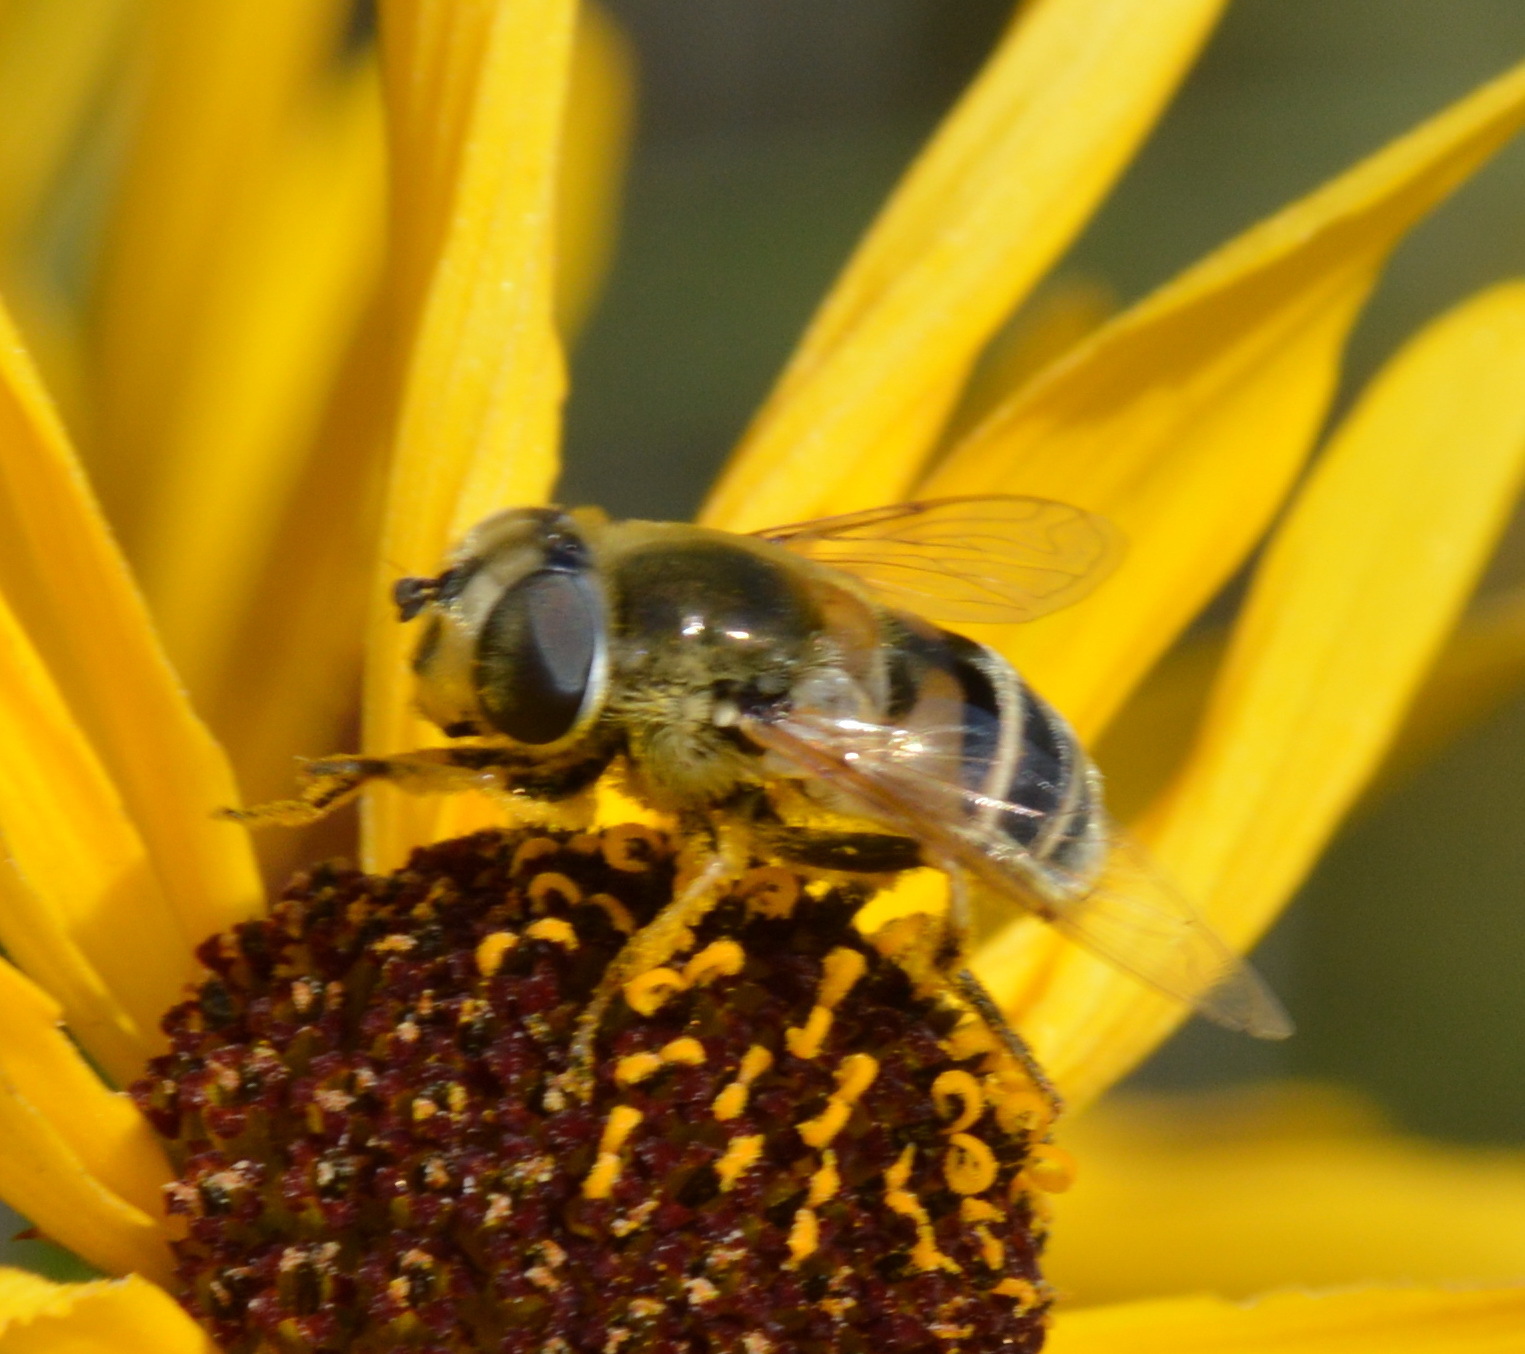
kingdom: Animalia
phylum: Arthropoda
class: Insecta
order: Diptera
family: Syrphidae
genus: Eristalis
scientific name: Eristalis stipator
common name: Yellow-shouldered drone fly
